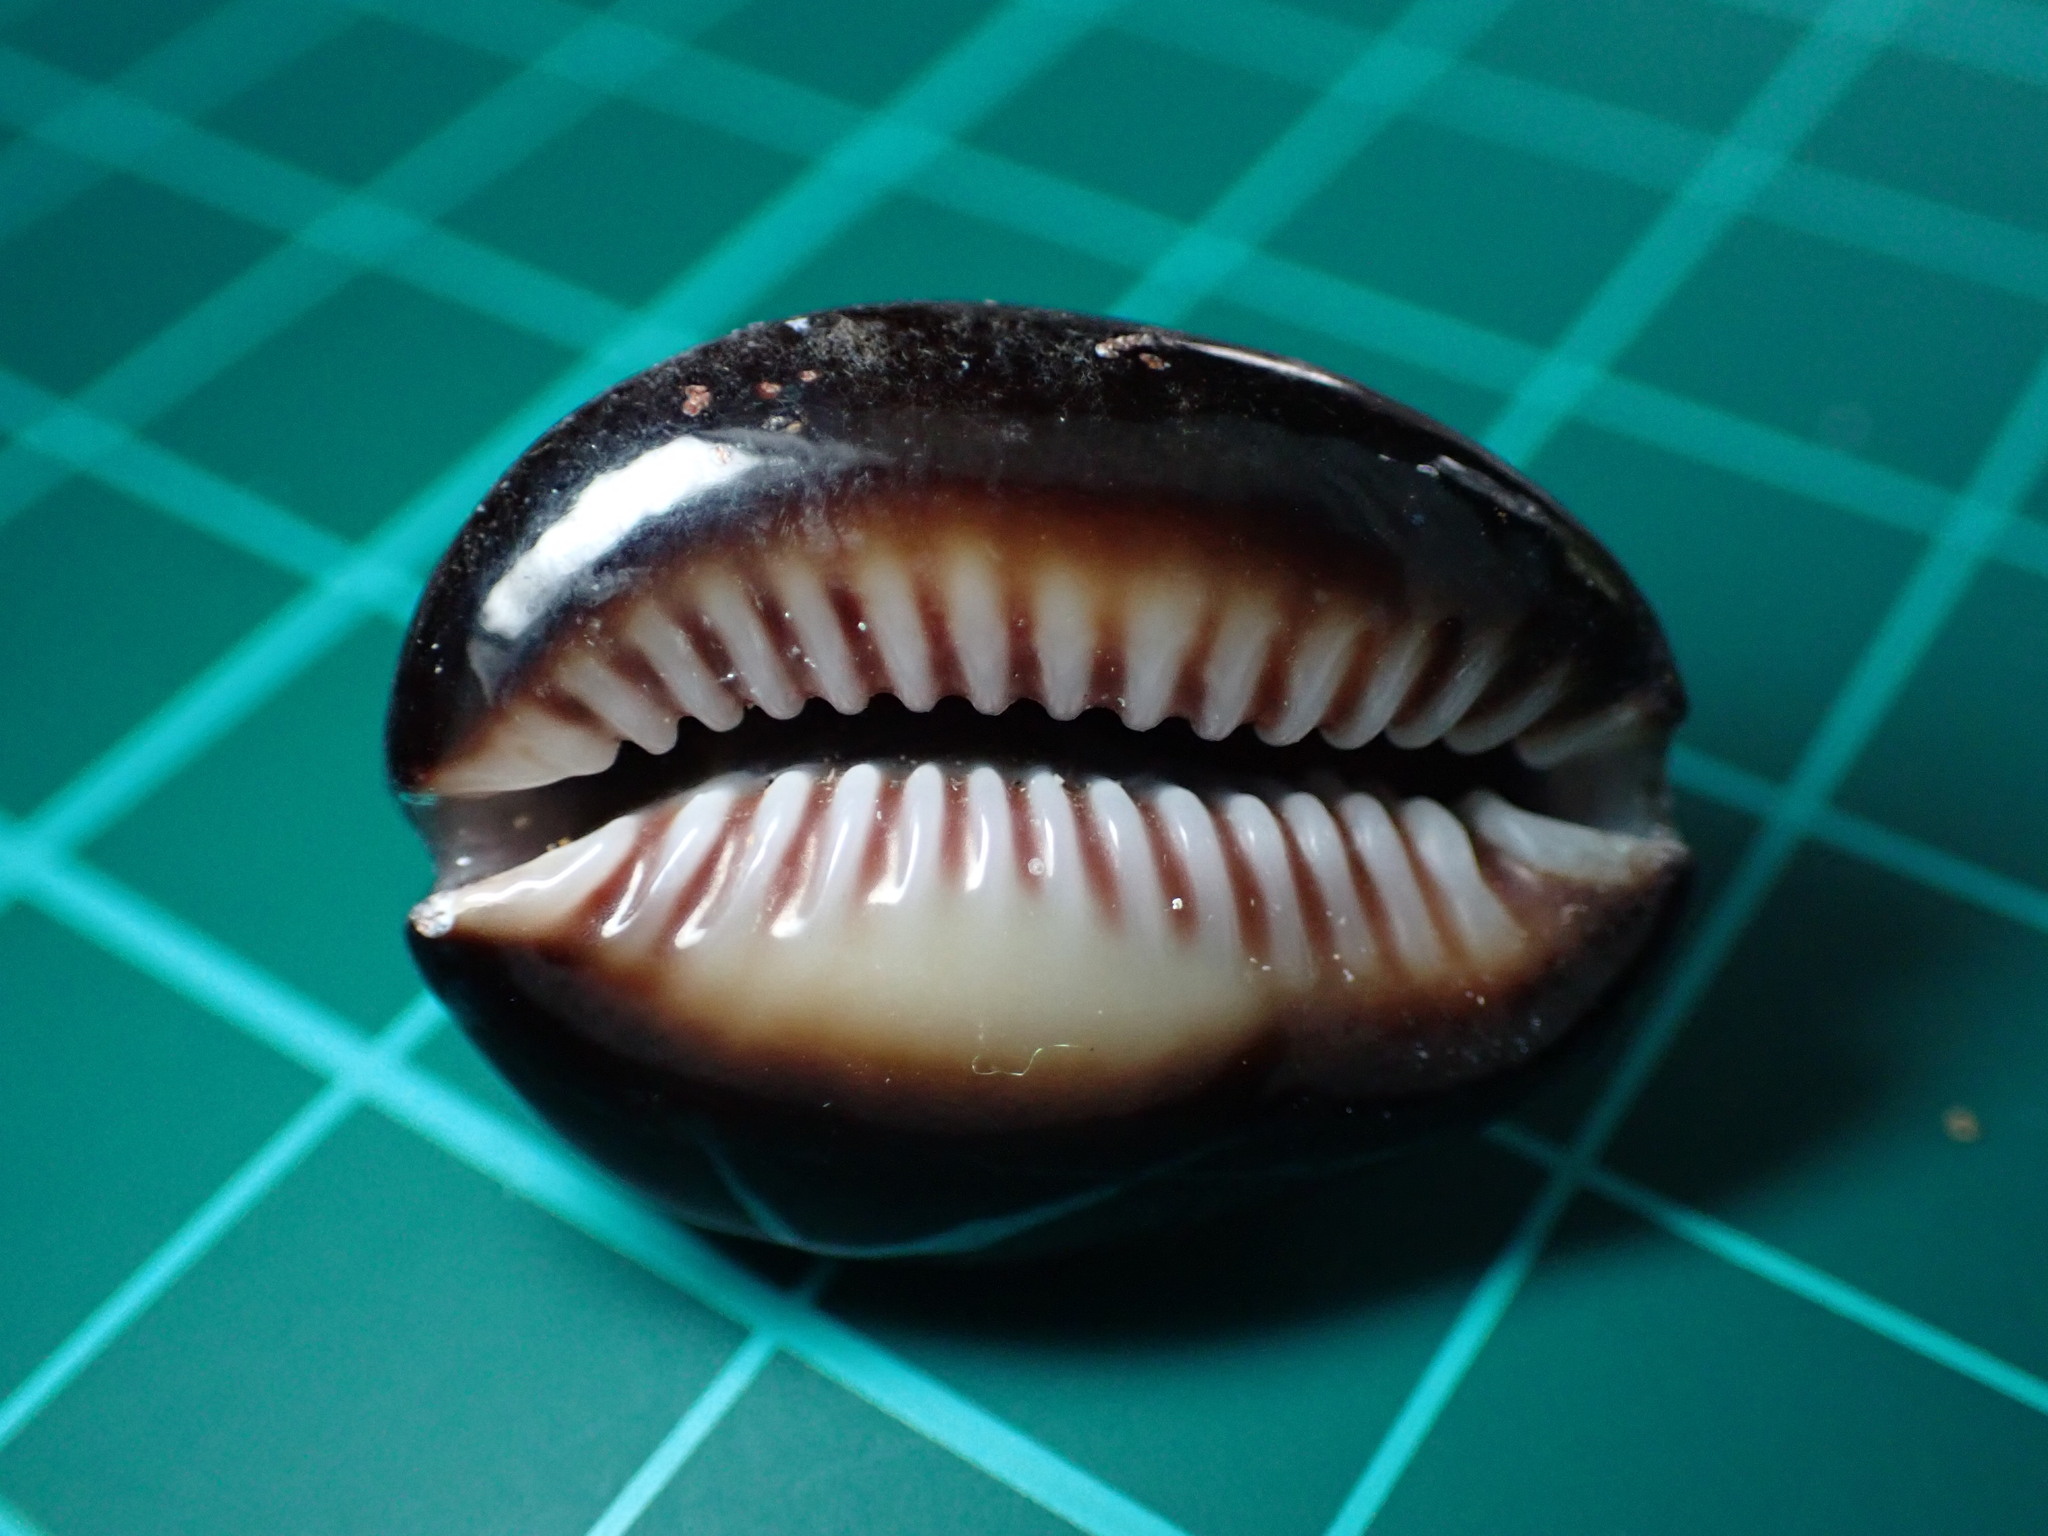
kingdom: Animalia
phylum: Mollusca
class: Gastropoda
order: Littorinimorpha
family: Cypraeidae
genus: Monetaria
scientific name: Monetaria caputophidii
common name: Snake's head cowry
